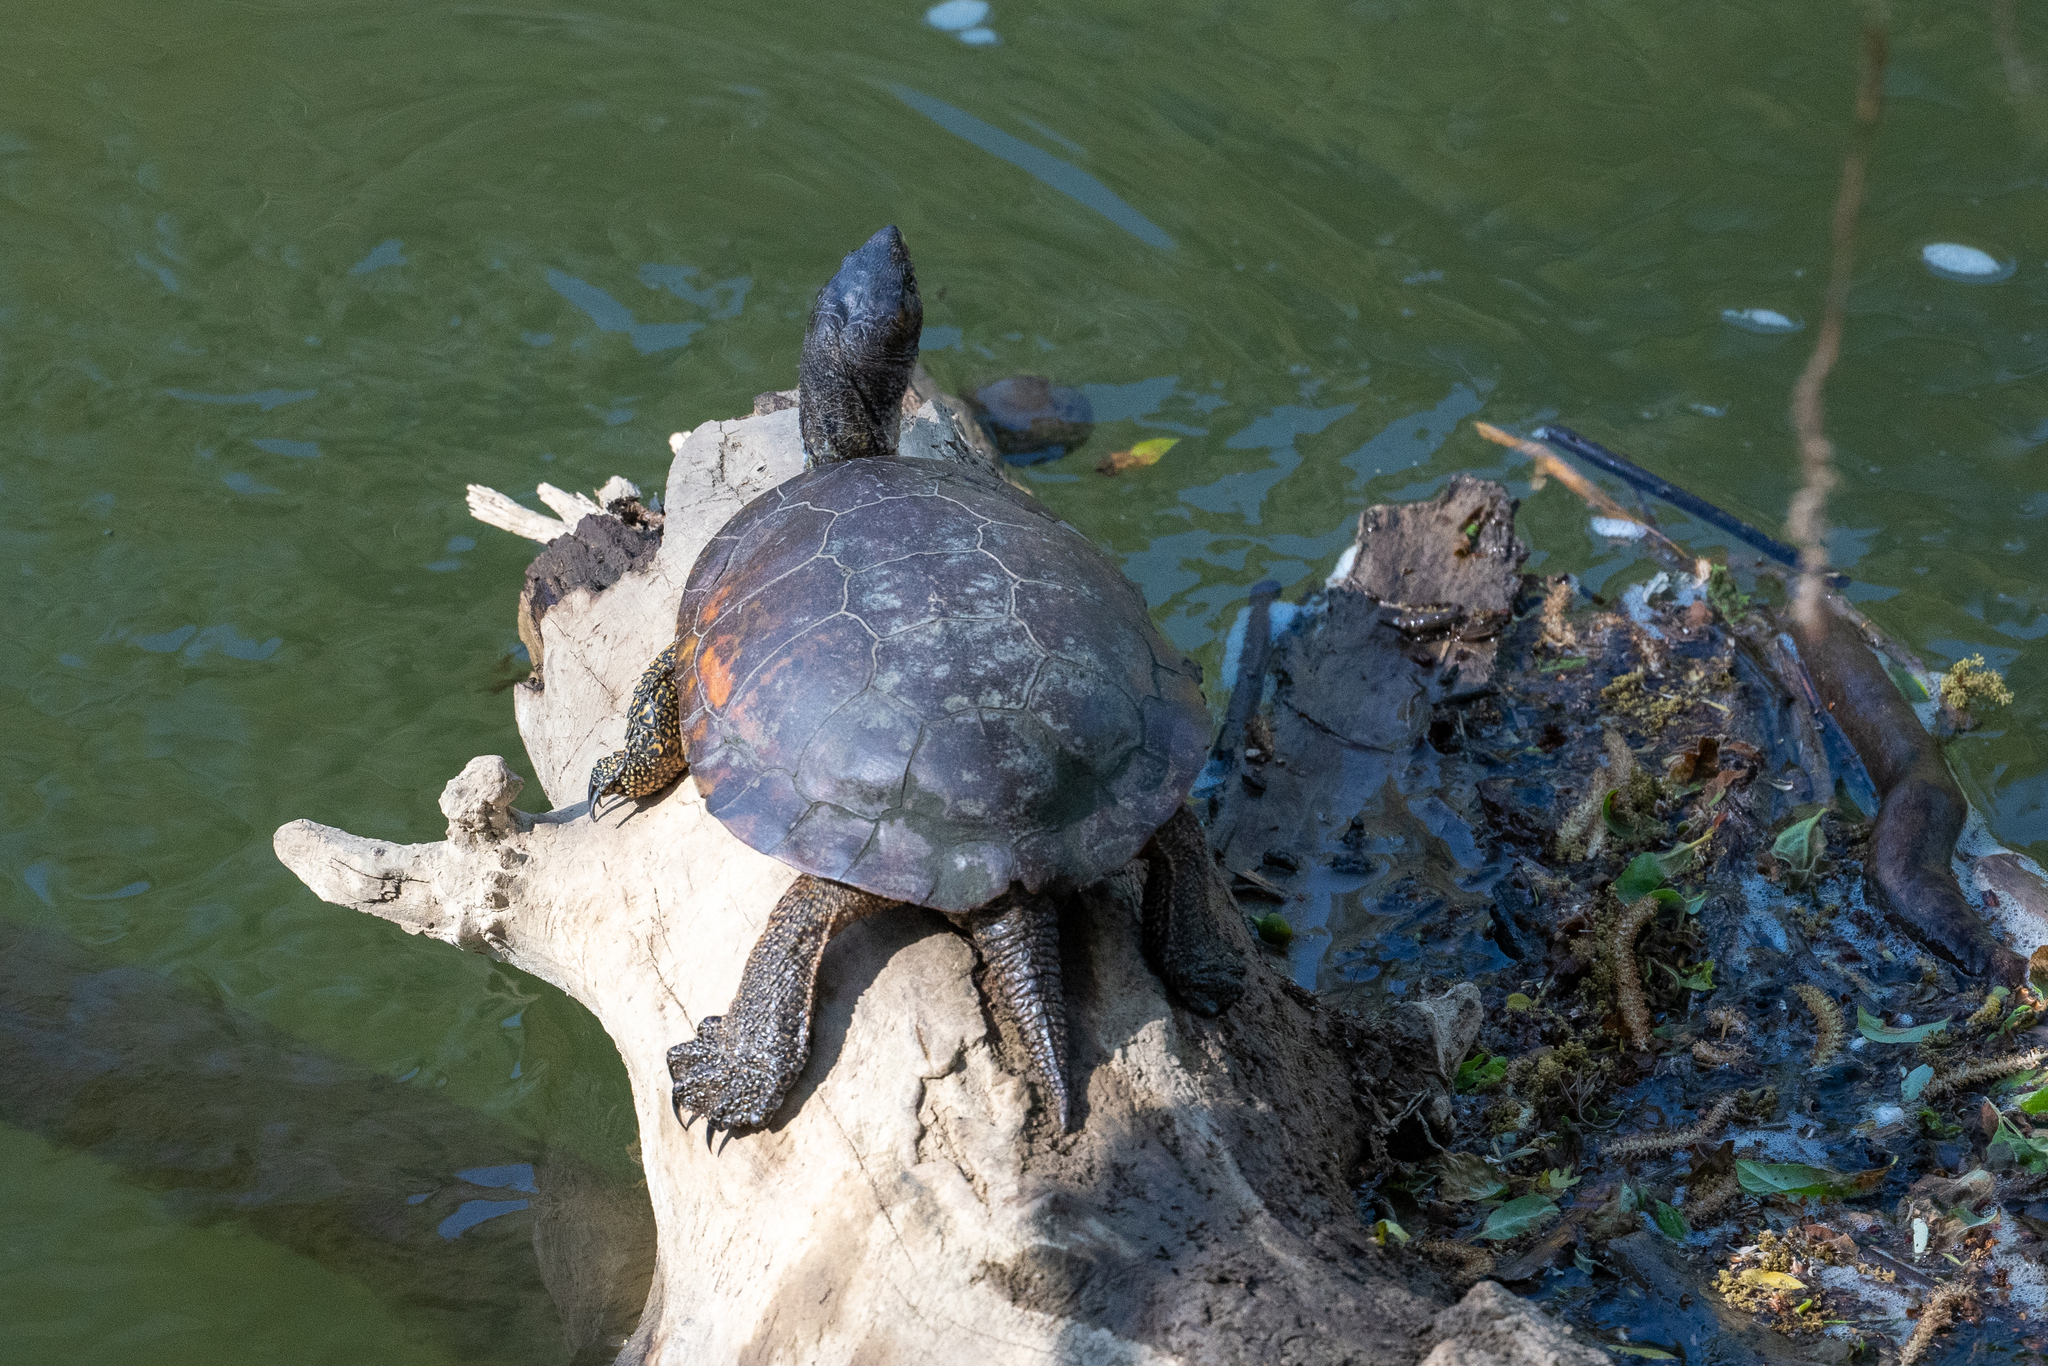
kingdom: Animalia
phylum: Chordata
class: Testudines
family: Emydidae
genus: Actinemys
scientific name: Actinemys marmorata
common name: Western pond turtle
